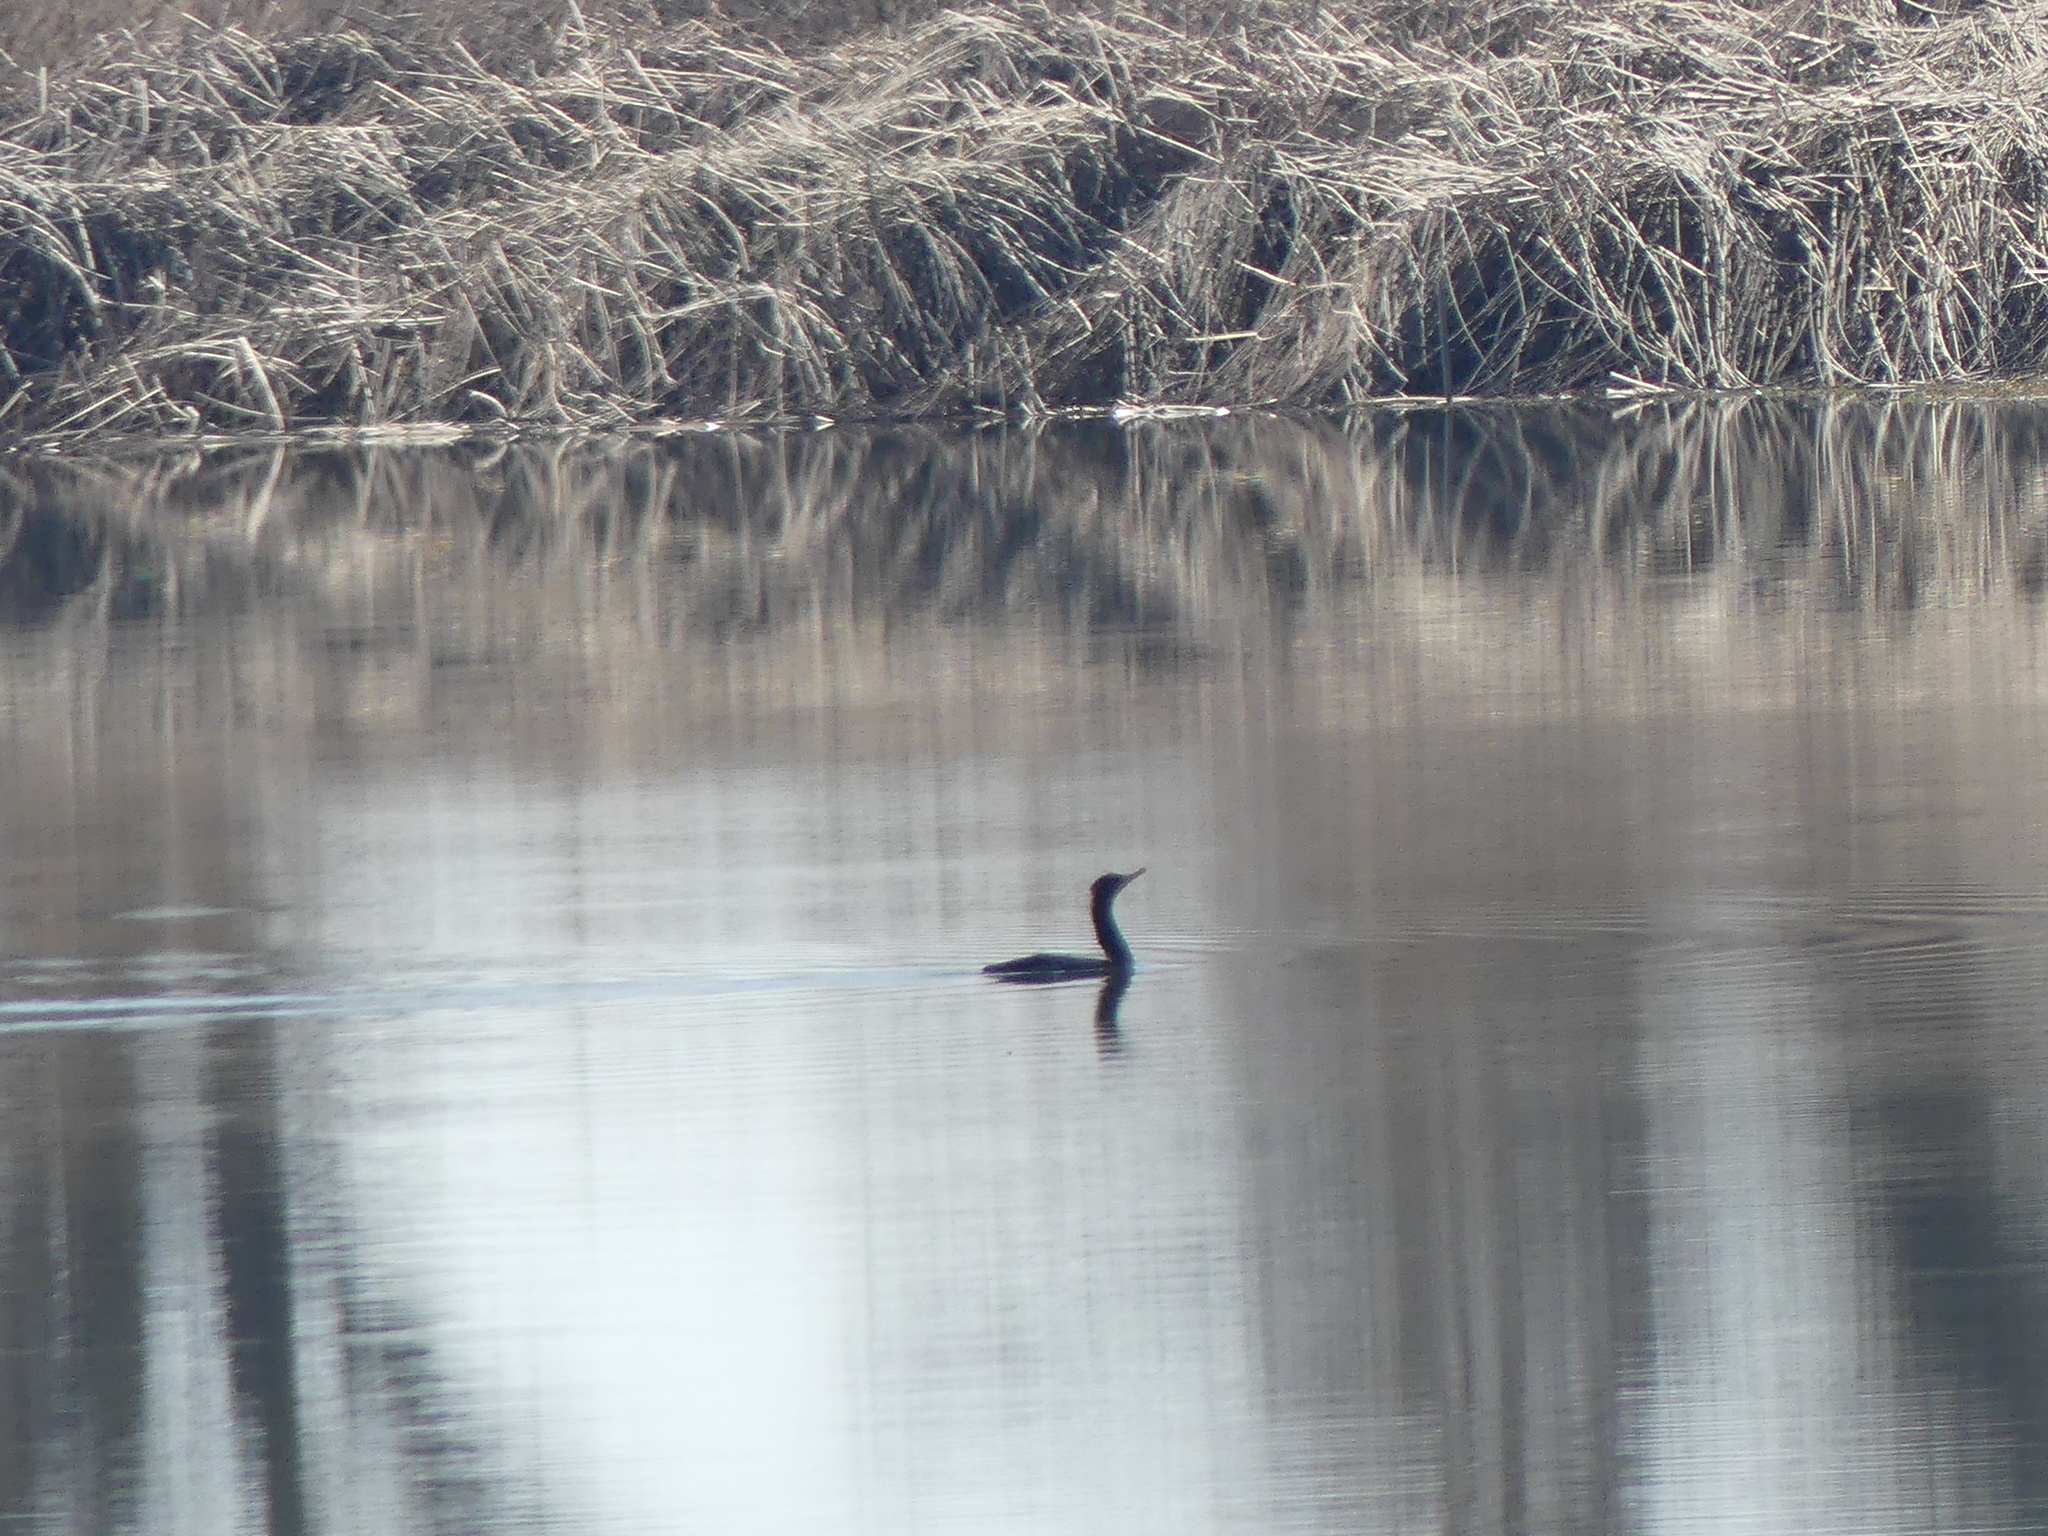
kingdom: Animalia
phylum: Chordata
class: Aves
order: Suliformes
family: Phalacrocoracidae
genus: Phalacrocorax
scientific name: Phalacrocorax auritus
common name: Double-crested cormorant
